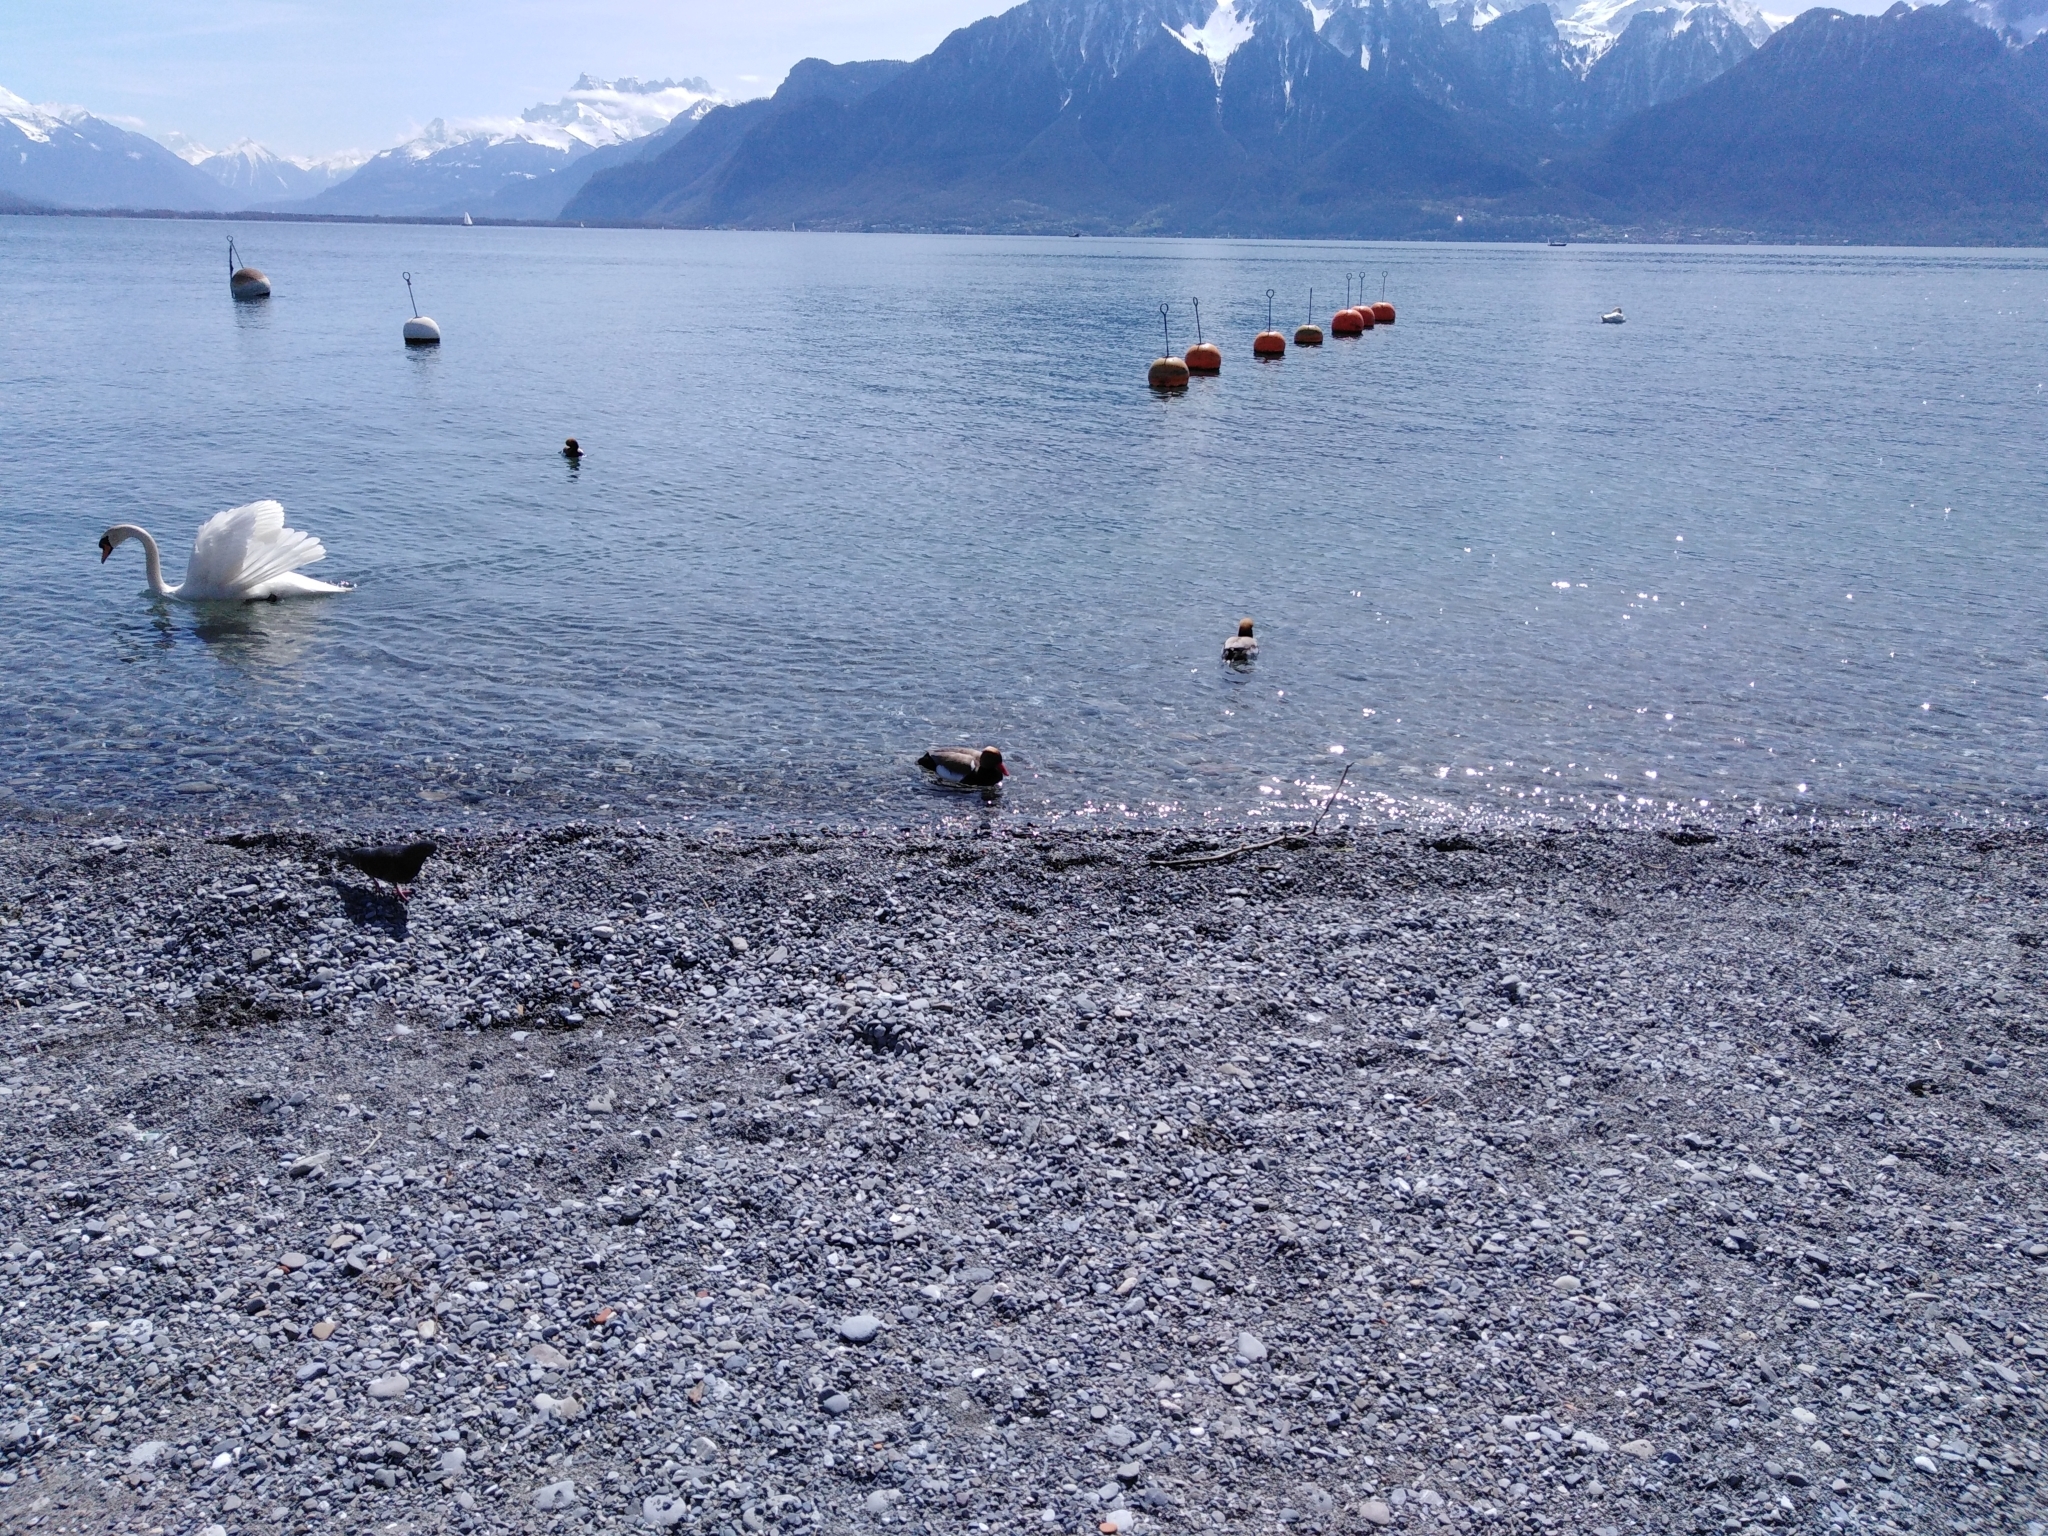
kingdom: Animalia
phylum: Chordata
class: Aves
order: Anseriformes
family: Anatidae
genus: Netta
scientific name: Netta rufina
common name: Red-crested pochard
